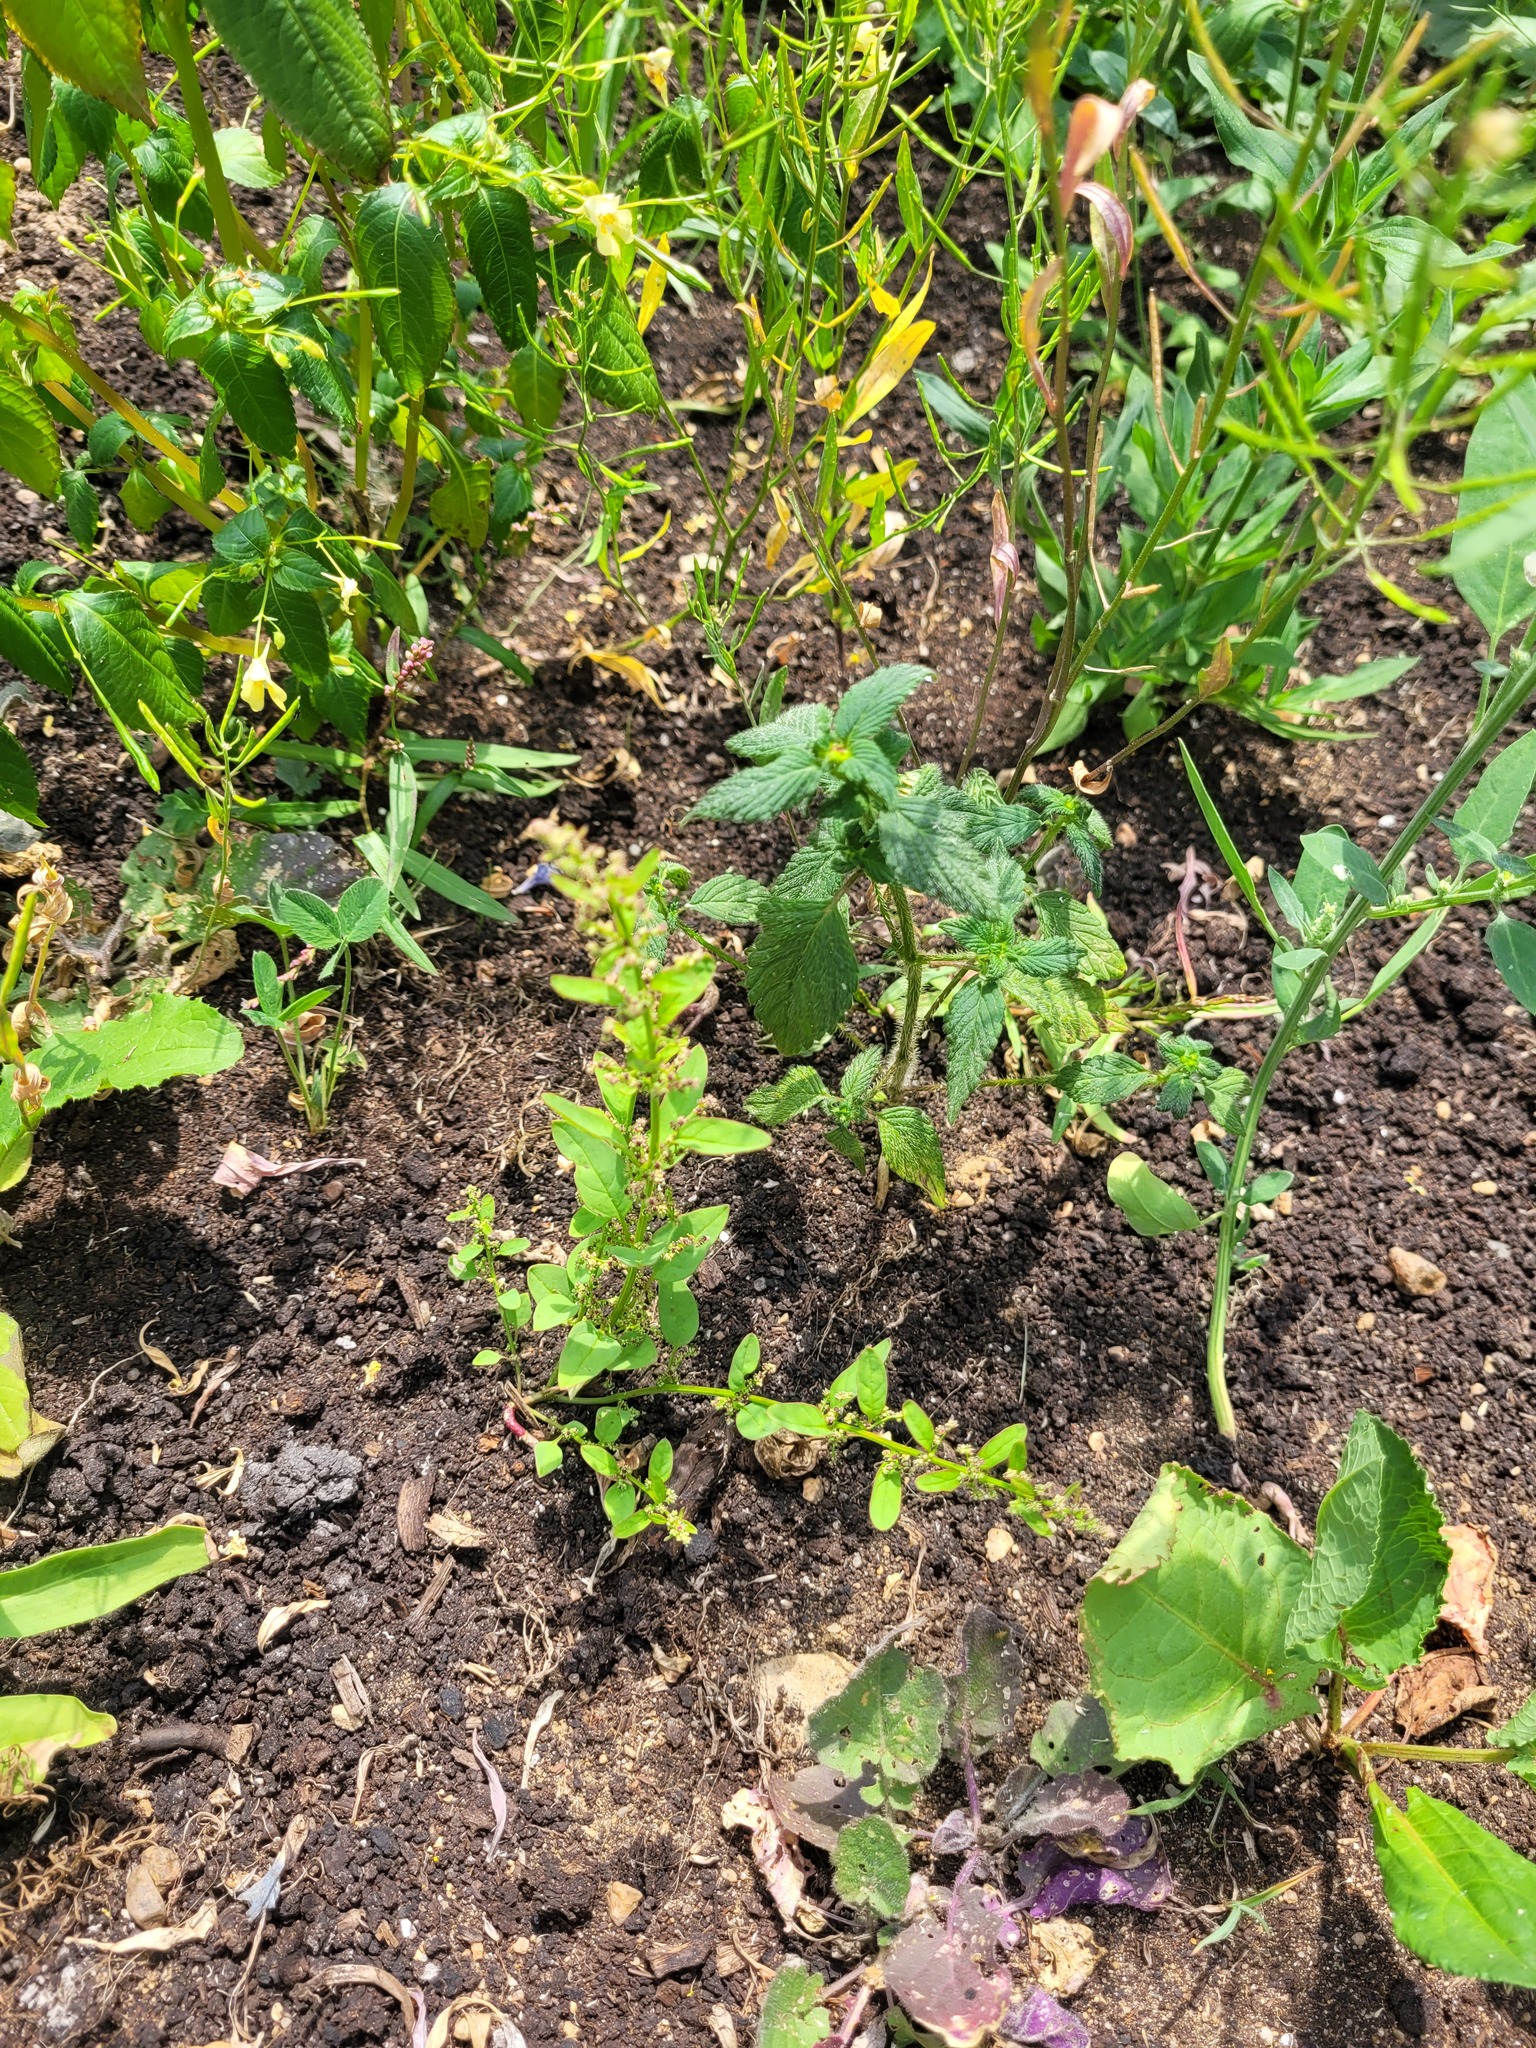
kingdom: Plantae
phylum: Tracheophyta
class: Magnoliopsida
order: Caryophyllales
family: Amaranthaceae
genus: Lipandra
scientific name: Lipandra polysperma
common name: Many-seed goosefoot
